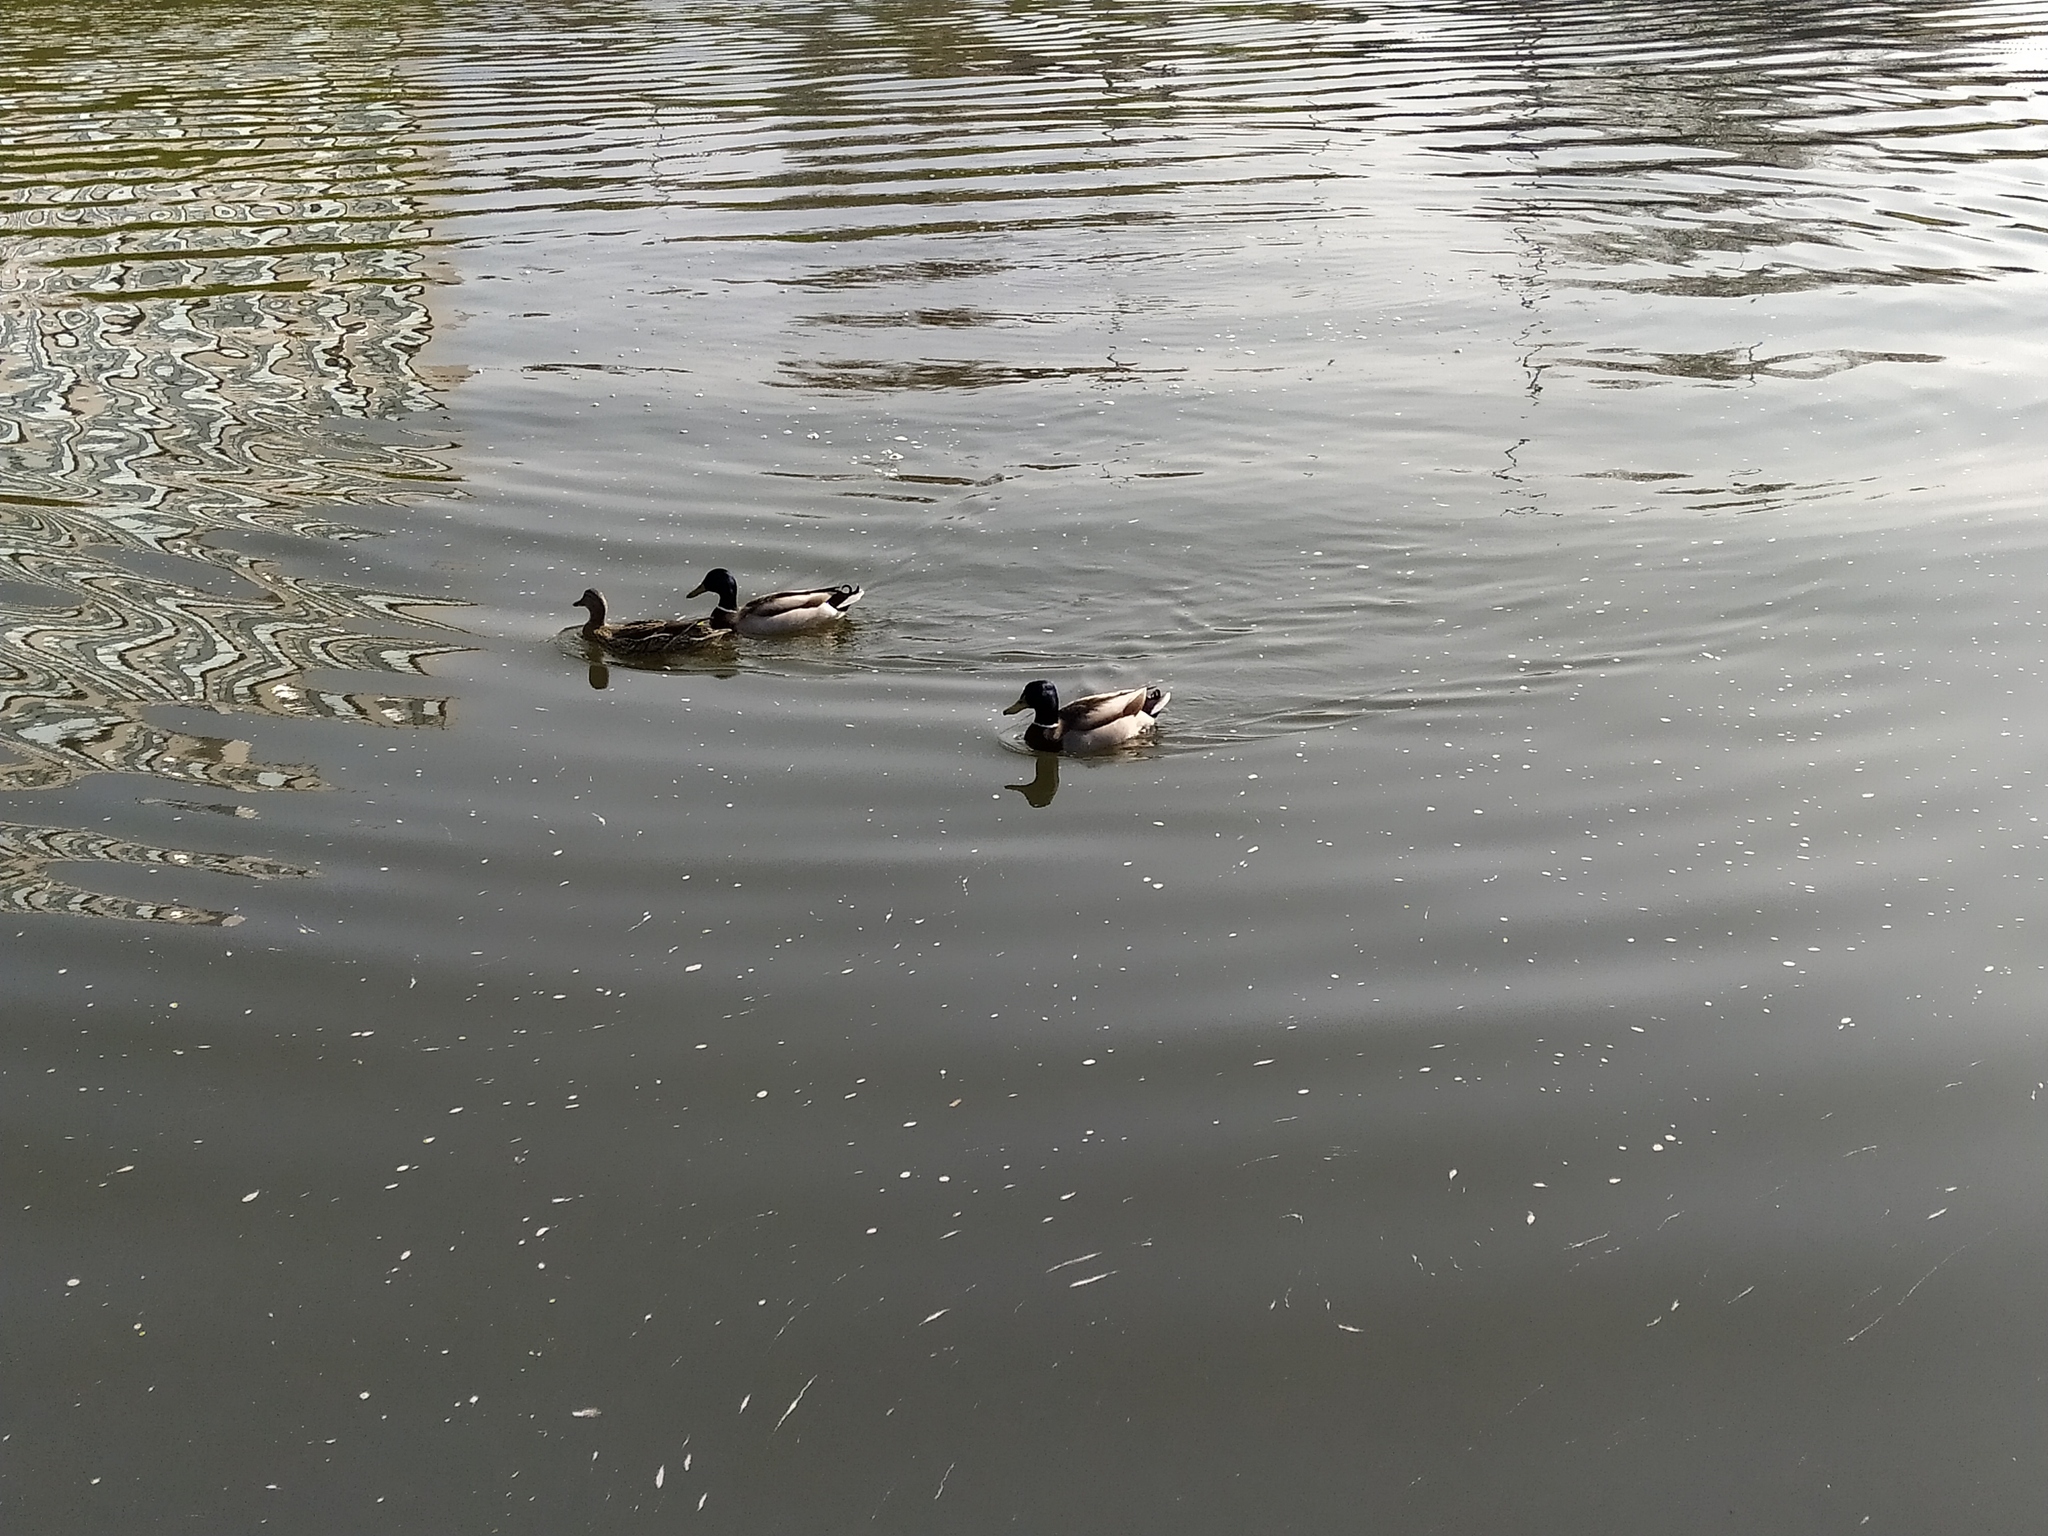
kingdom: Animalia
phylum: Chordata
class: Aves
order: Anseriformes
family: Anatidae
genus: Anas
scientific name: Anas platyrhynchos
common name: Mallard
